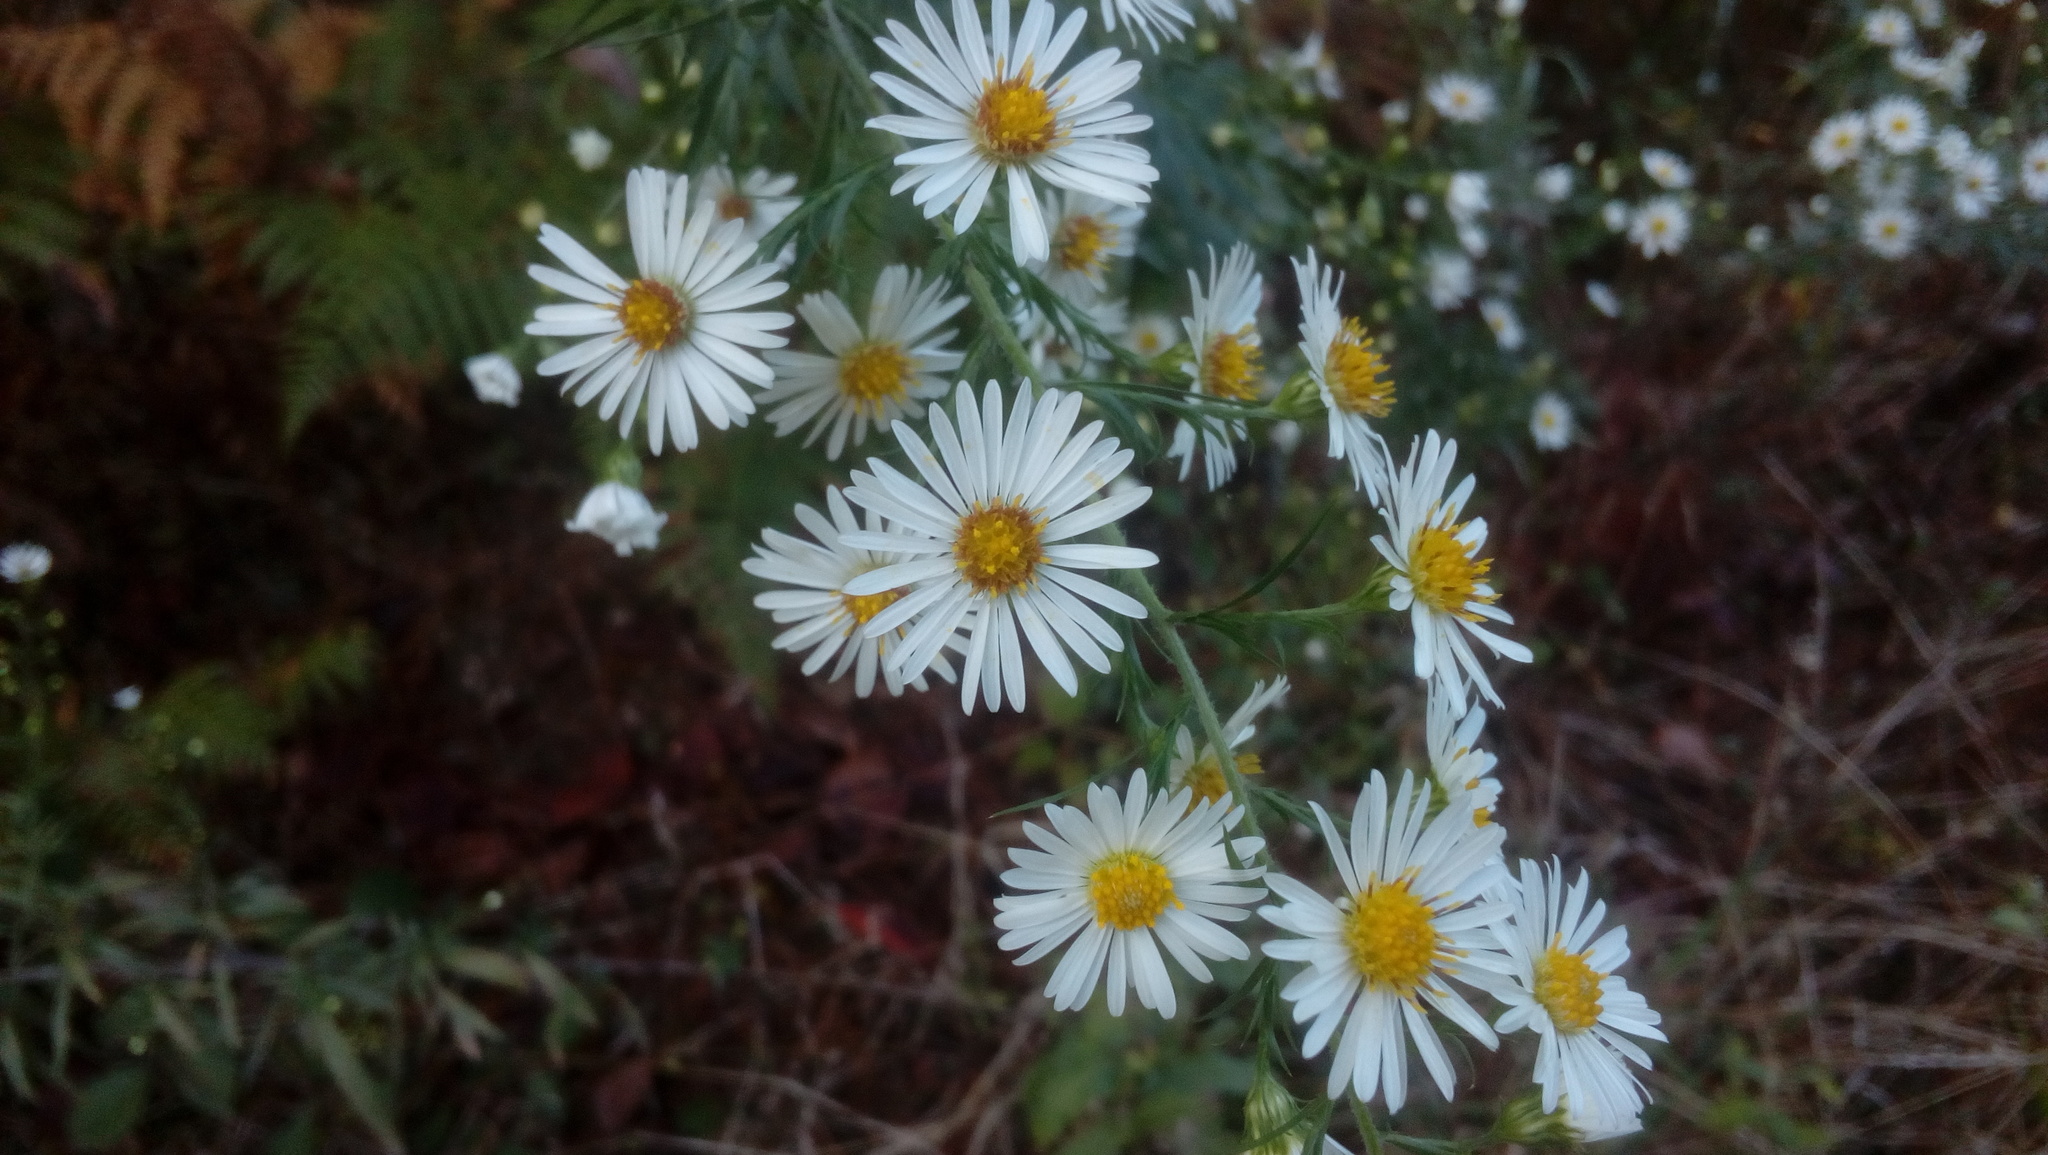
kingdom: Plantae
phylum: Tracheophyta
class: Magnoliopsida
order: Asterales
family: Asteraceae
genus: Symphyotrichum
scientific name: Symphyotrichum pilosum
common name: Awl aster
